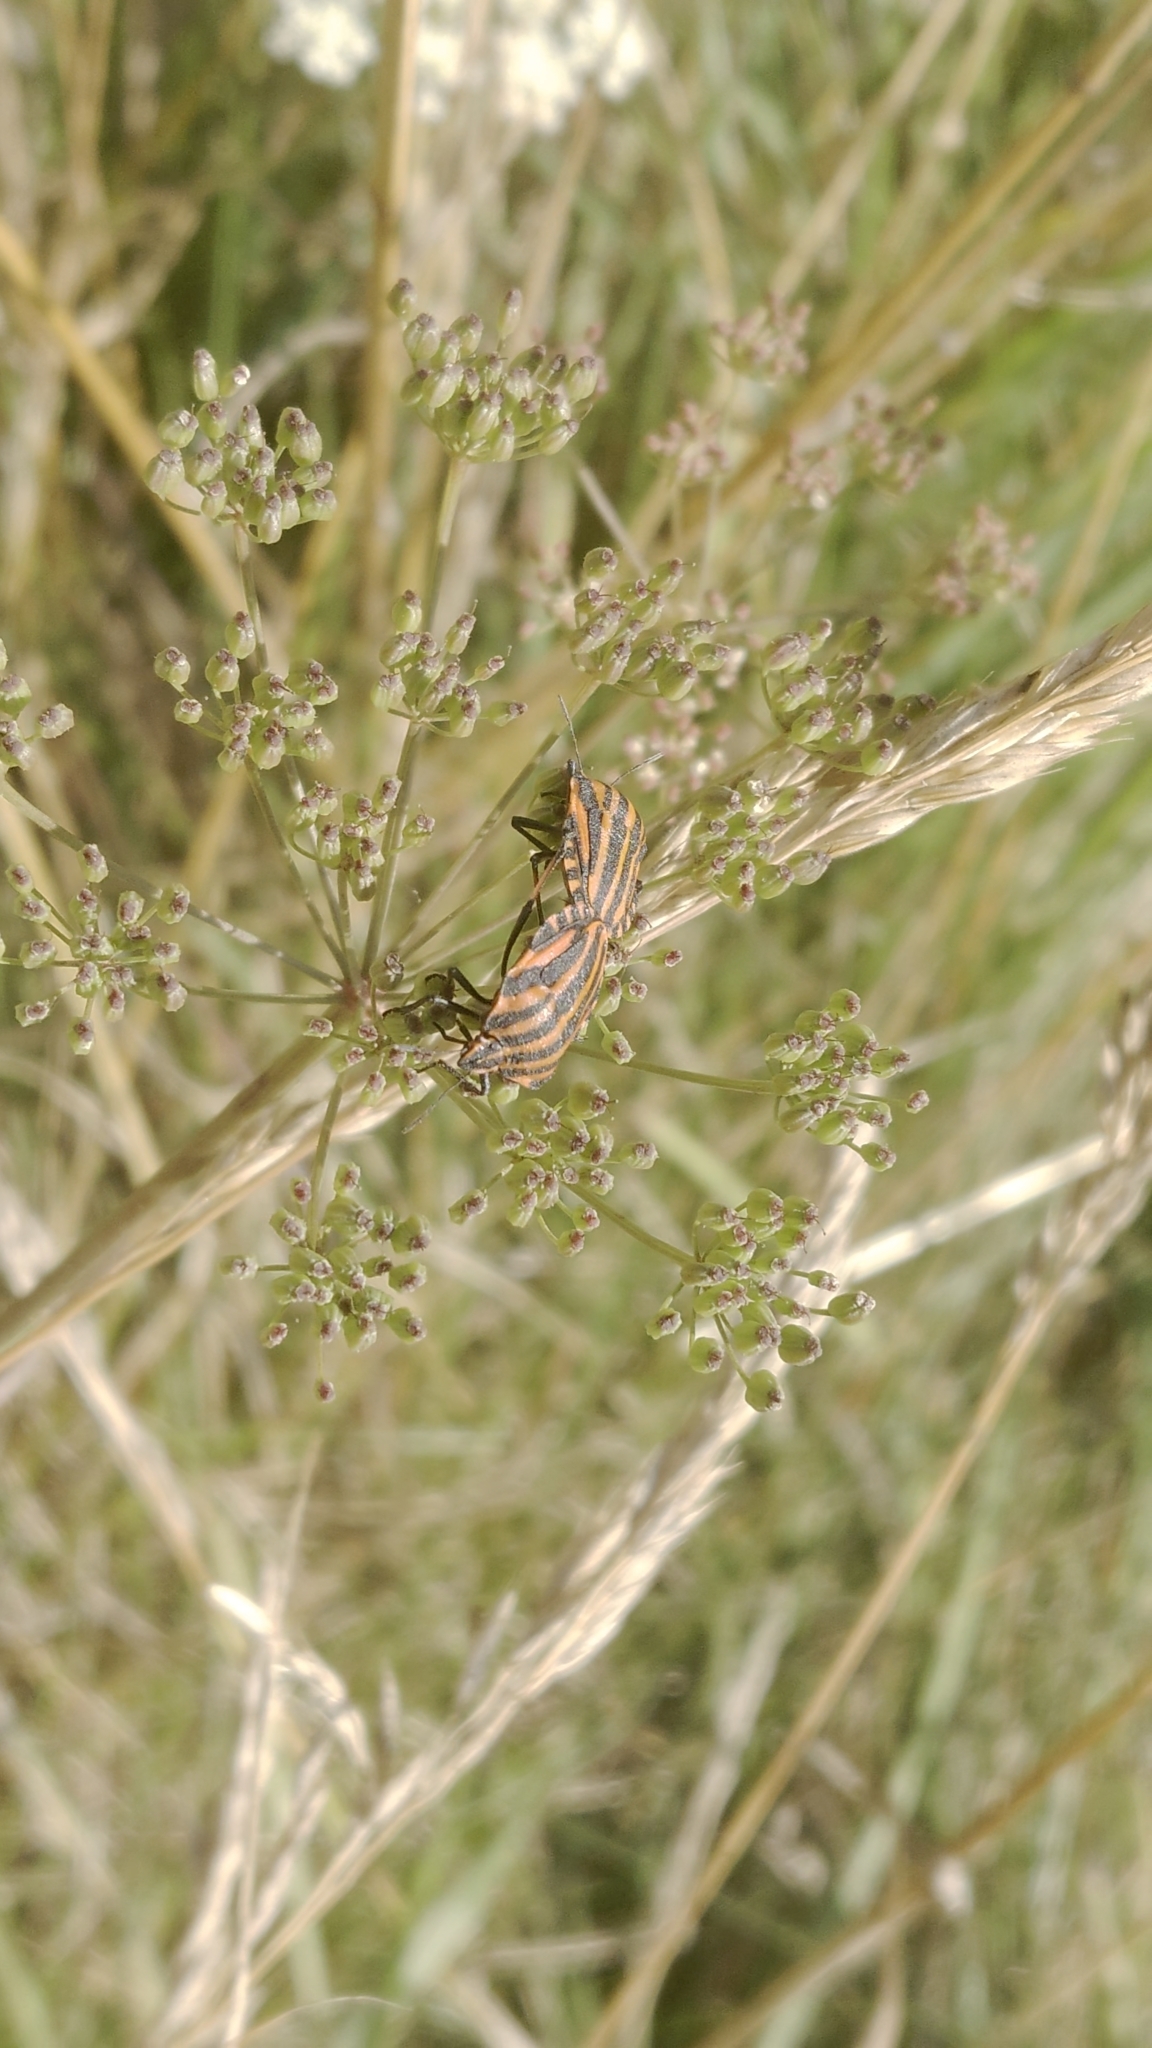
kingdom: Animalia
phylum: Arthropoda
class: Insecta
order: Hemiptera
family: Pentatomidae
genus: Graphosoma
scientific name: Graphosoma italicum
